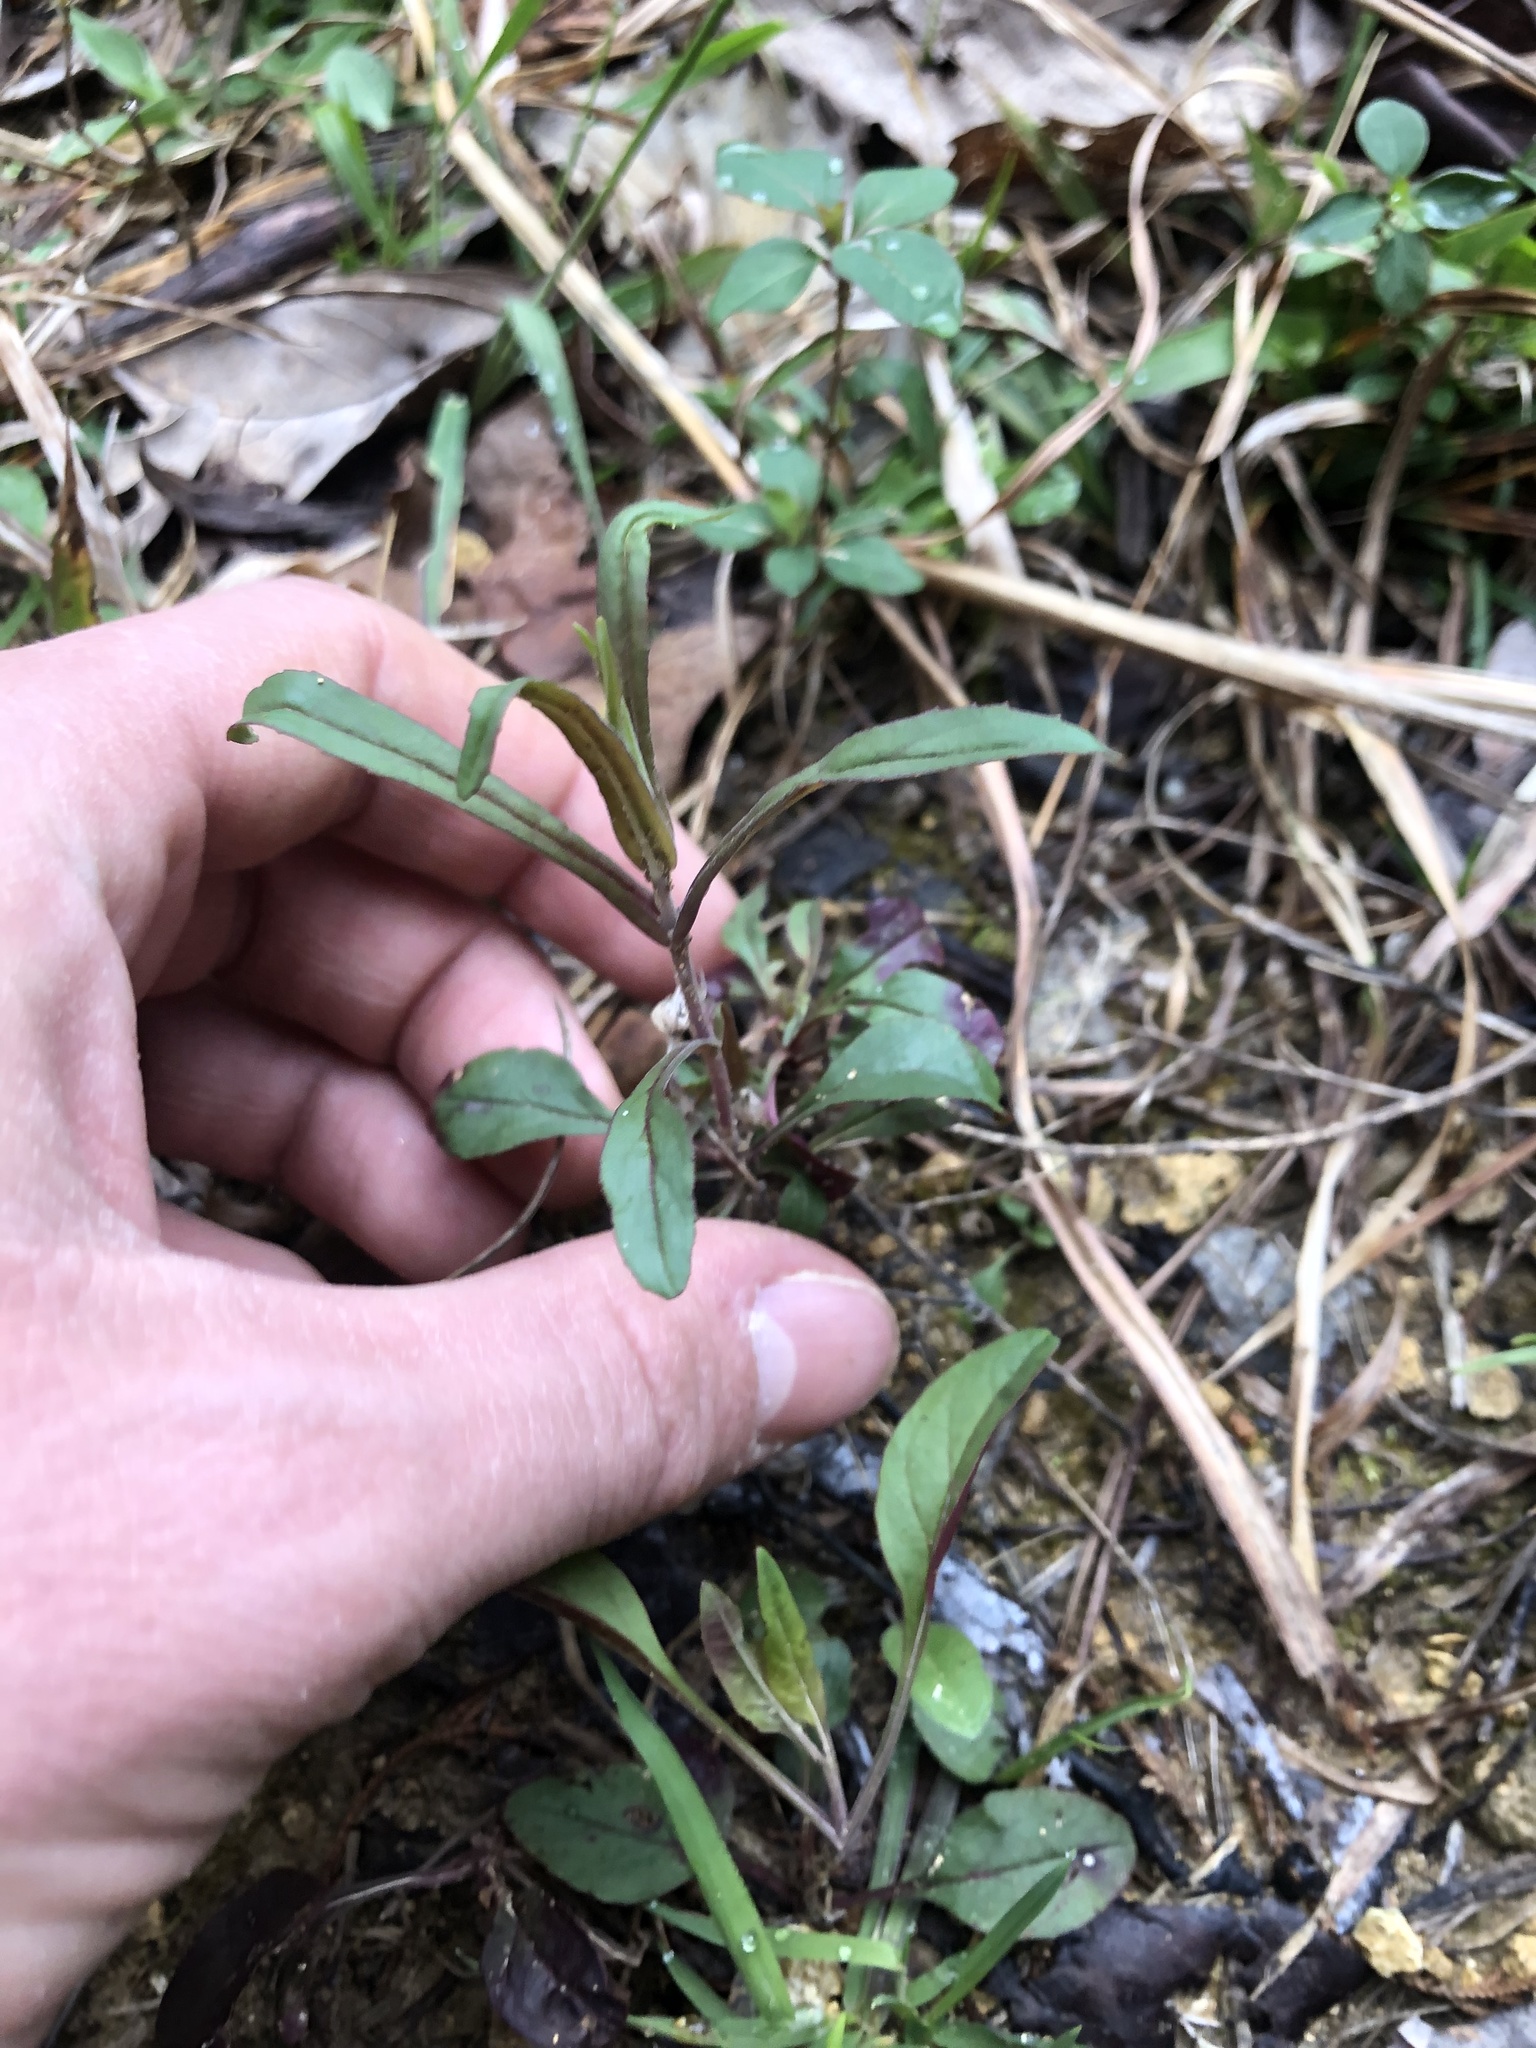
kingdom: Plantae
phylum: Tracheophyta
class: Magnoliopsida
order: Lamiales
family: Plantaginaceae
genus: Penstemon
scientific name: Penstemon laxiflorus
